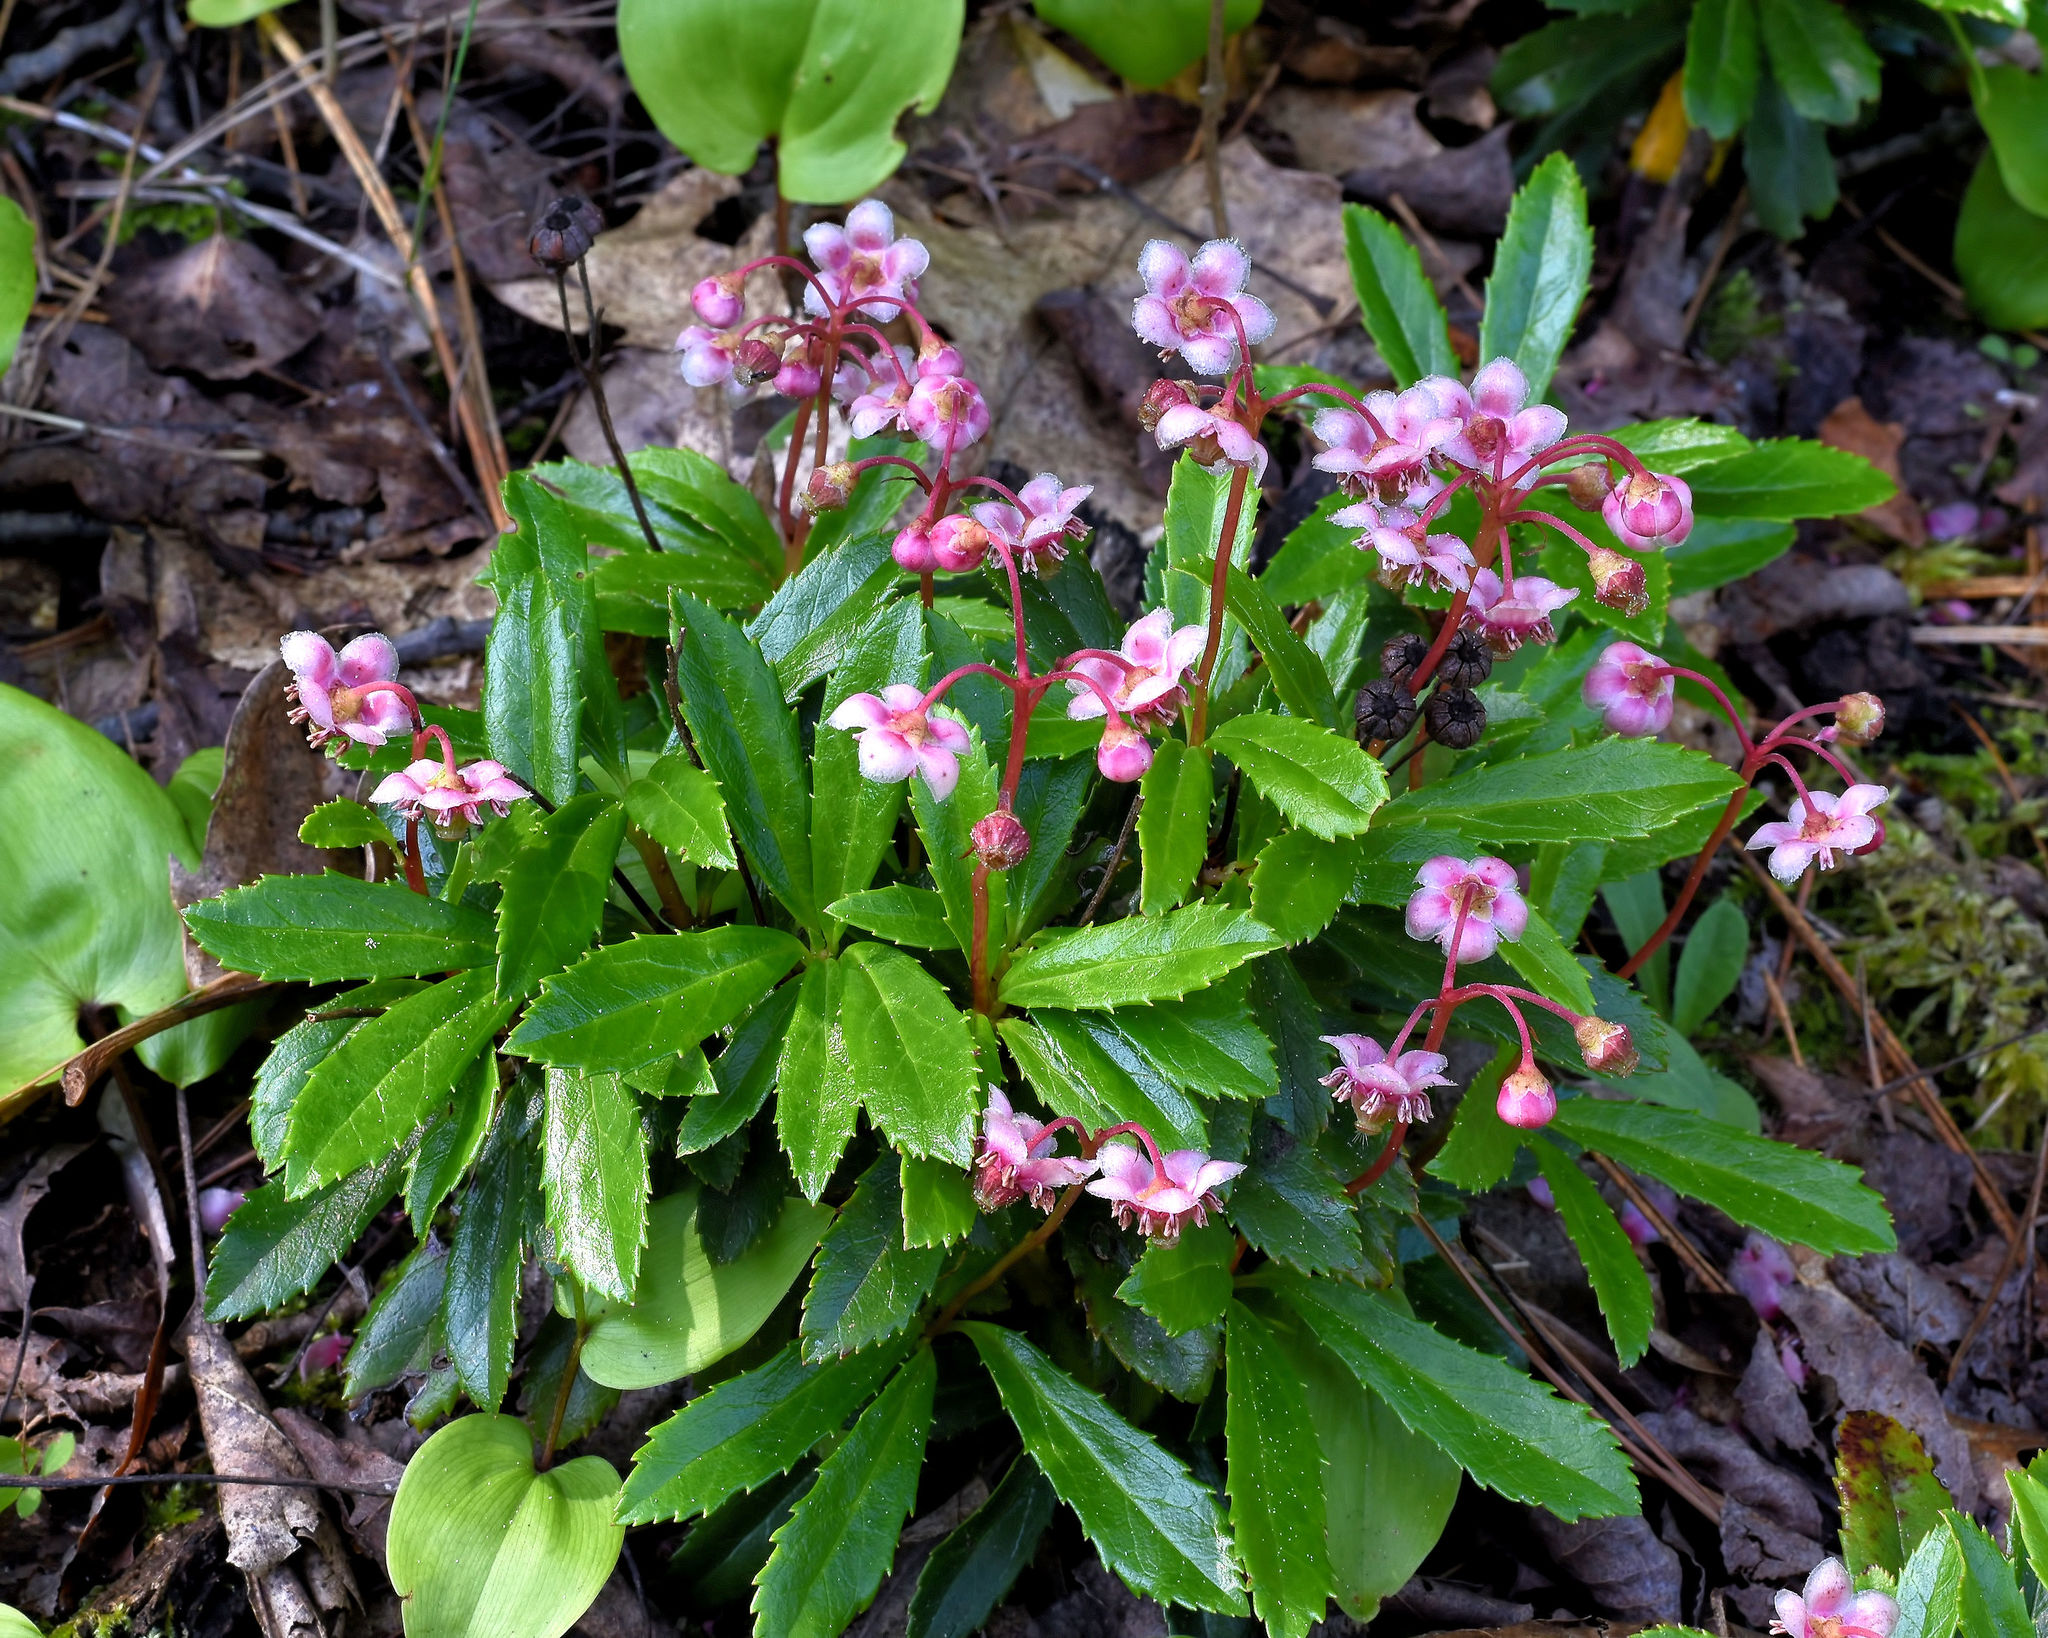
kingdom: Plantae
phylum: Tracheophyta
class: Magnoliopsida
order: Ericales
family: Ericaceae
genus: Chimaphila
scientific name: Chimaphila umbellata
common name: Pipsissewa
